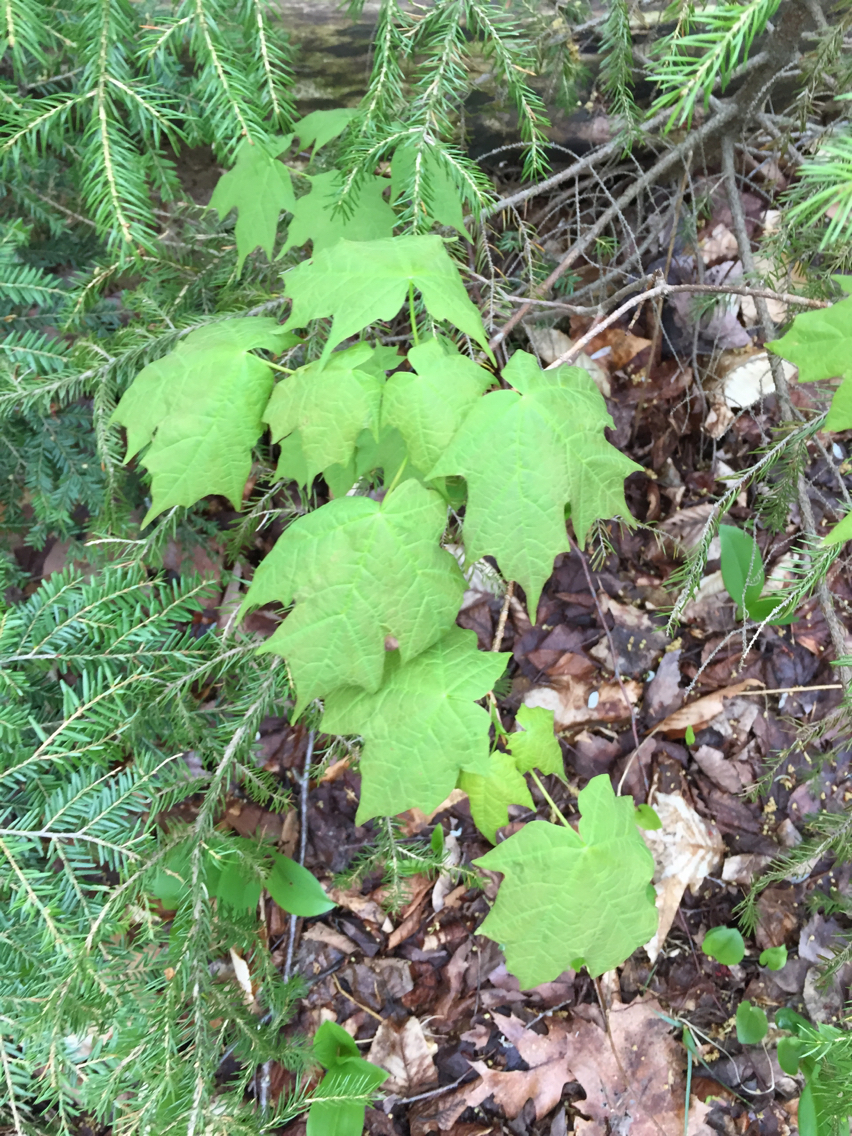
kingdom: Plantae
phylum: Tracheophyta
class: Magnoliopsida
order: Sapindales
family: Sapindaceae
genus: Acer
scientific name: Acer saccharum
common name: Sugar maple
